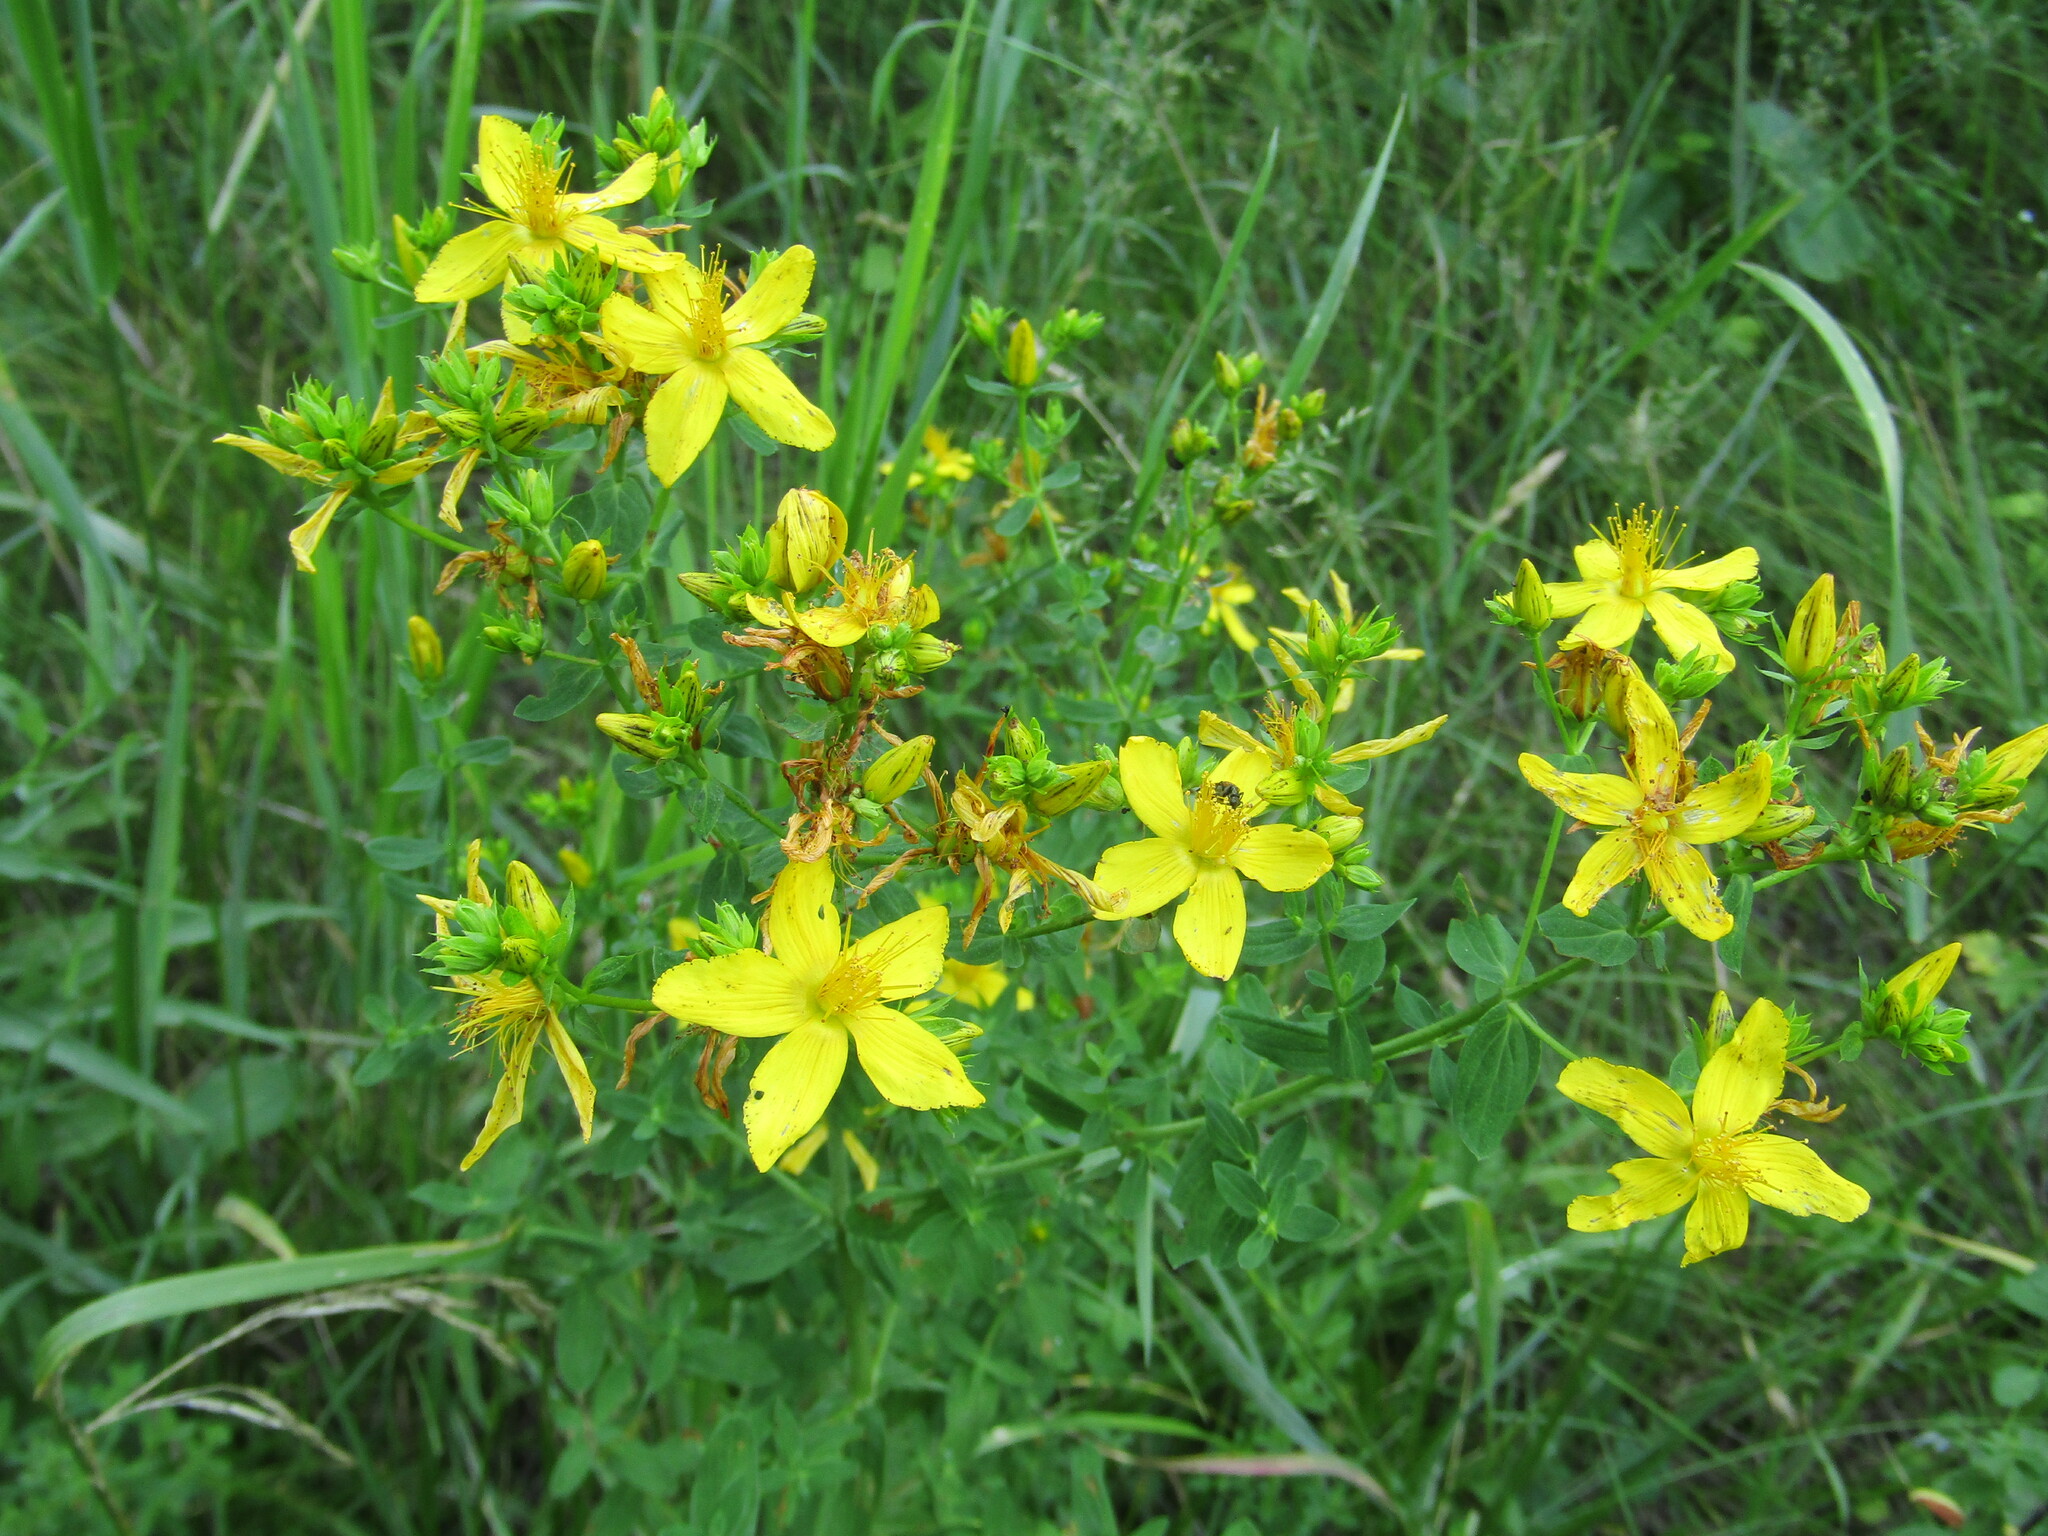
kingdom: Plantae
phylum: Tracheophyta
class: Magnoliopsida
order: Malpighiales
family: Hypericaceae
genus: Hypericum
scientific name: Hypericum perforatum
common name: Common st. johnswort
